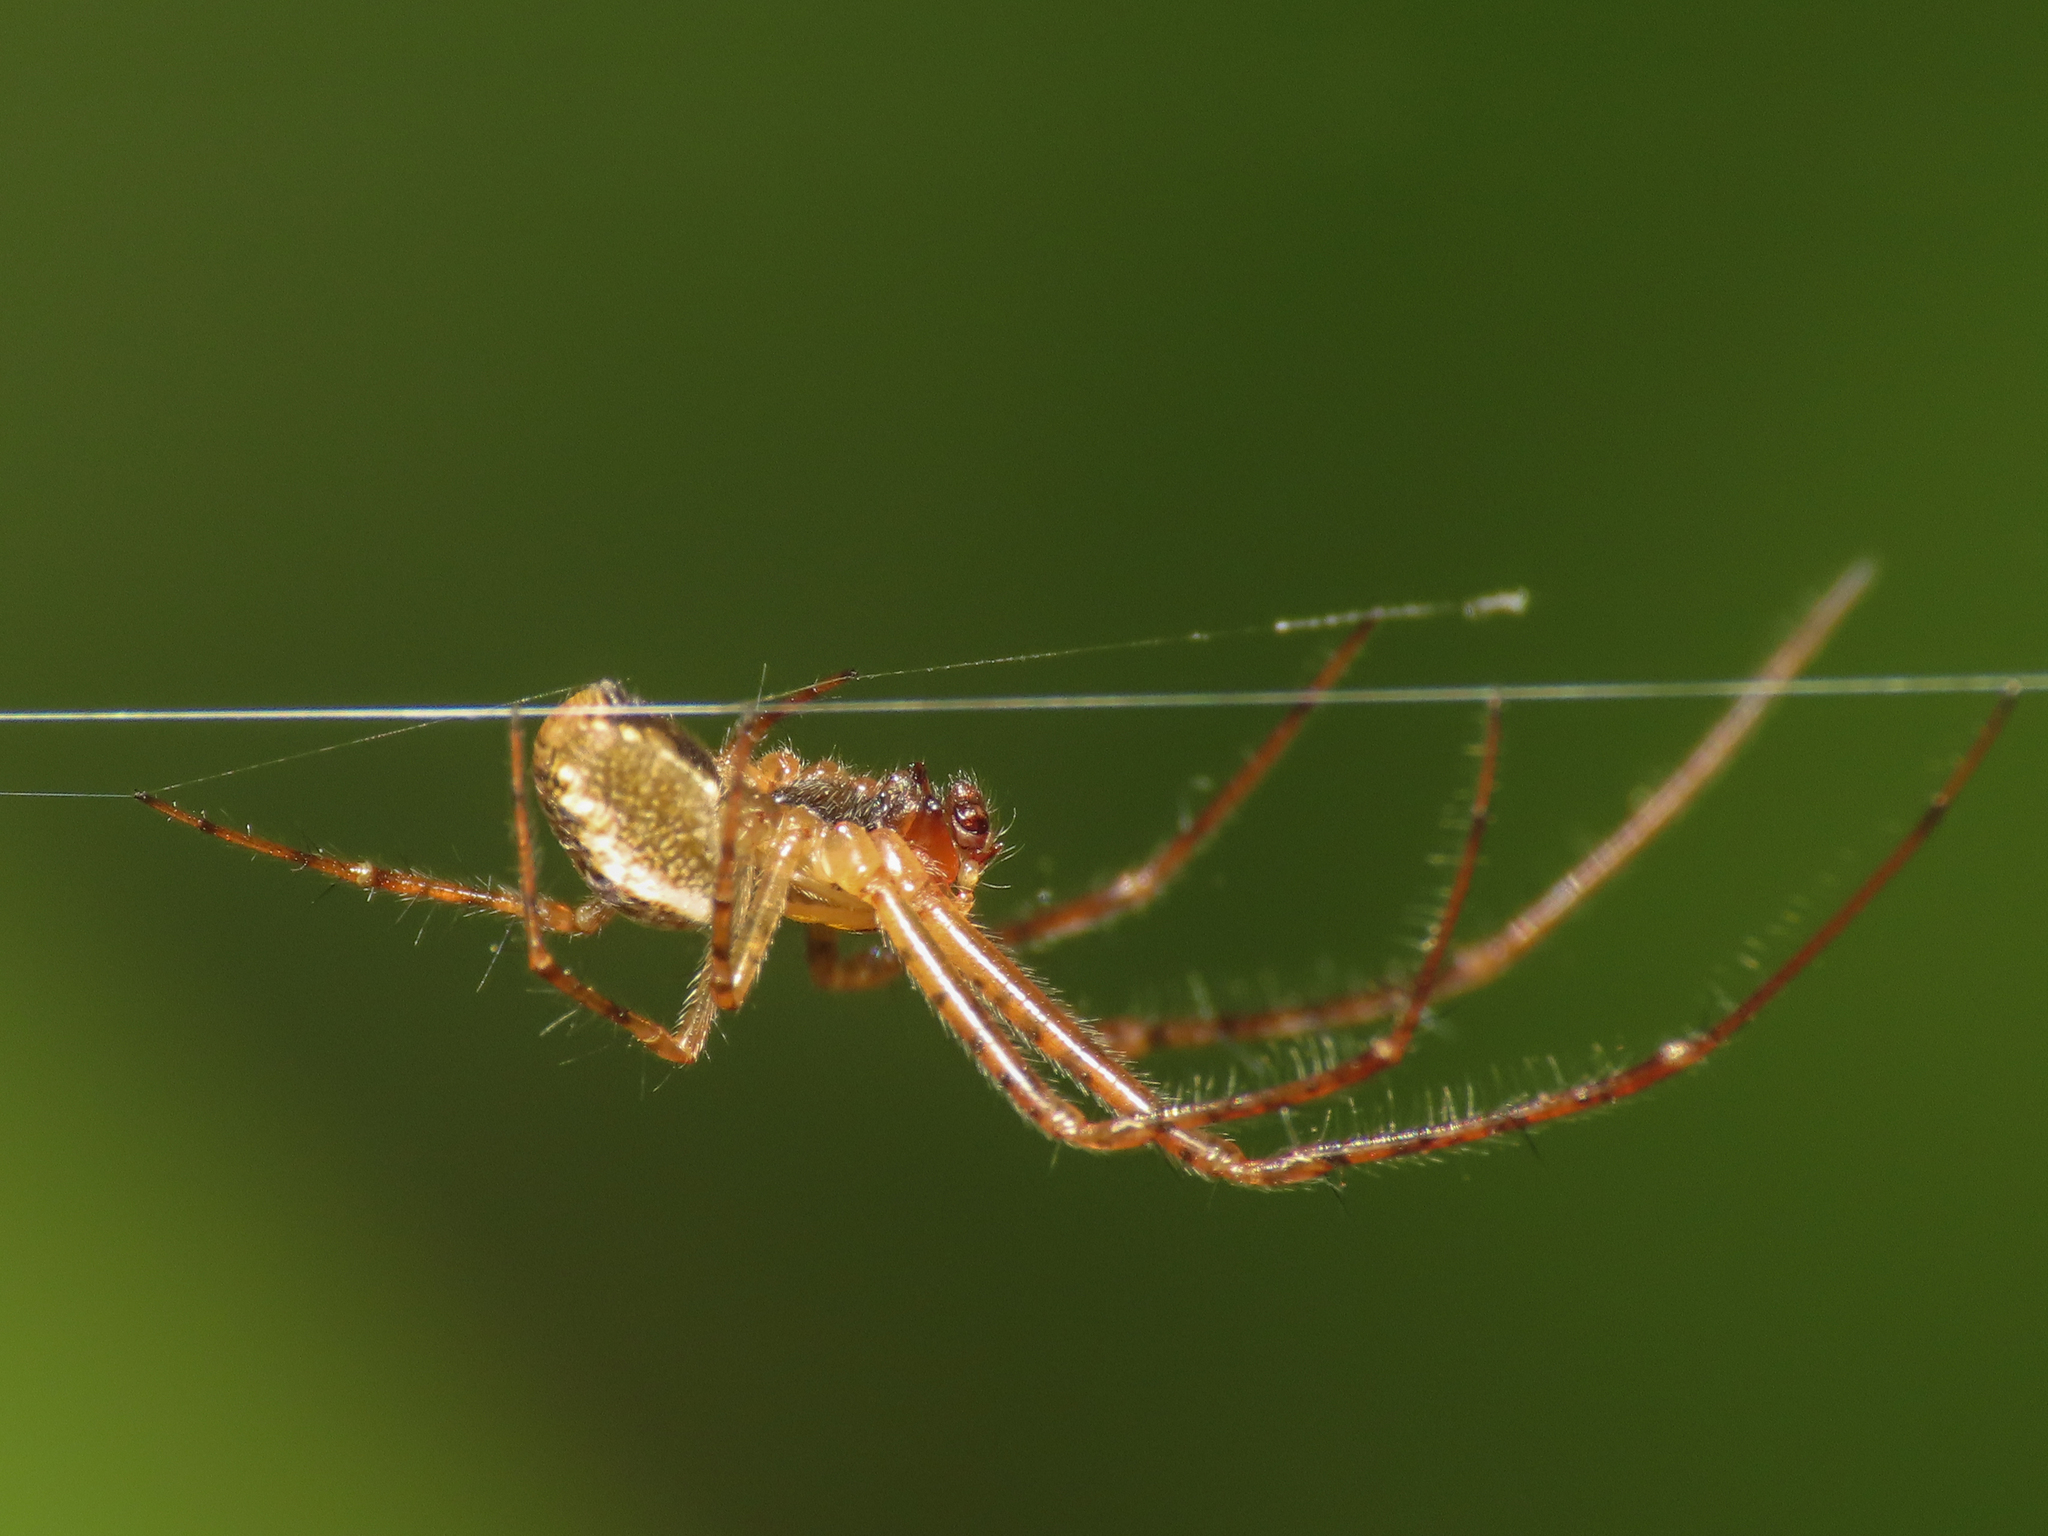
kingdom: Animalia
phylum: Arthropoda
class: Arachnida
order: Araneae
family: Tetragnathidae
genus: Metellina
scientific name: Metellina mengei
